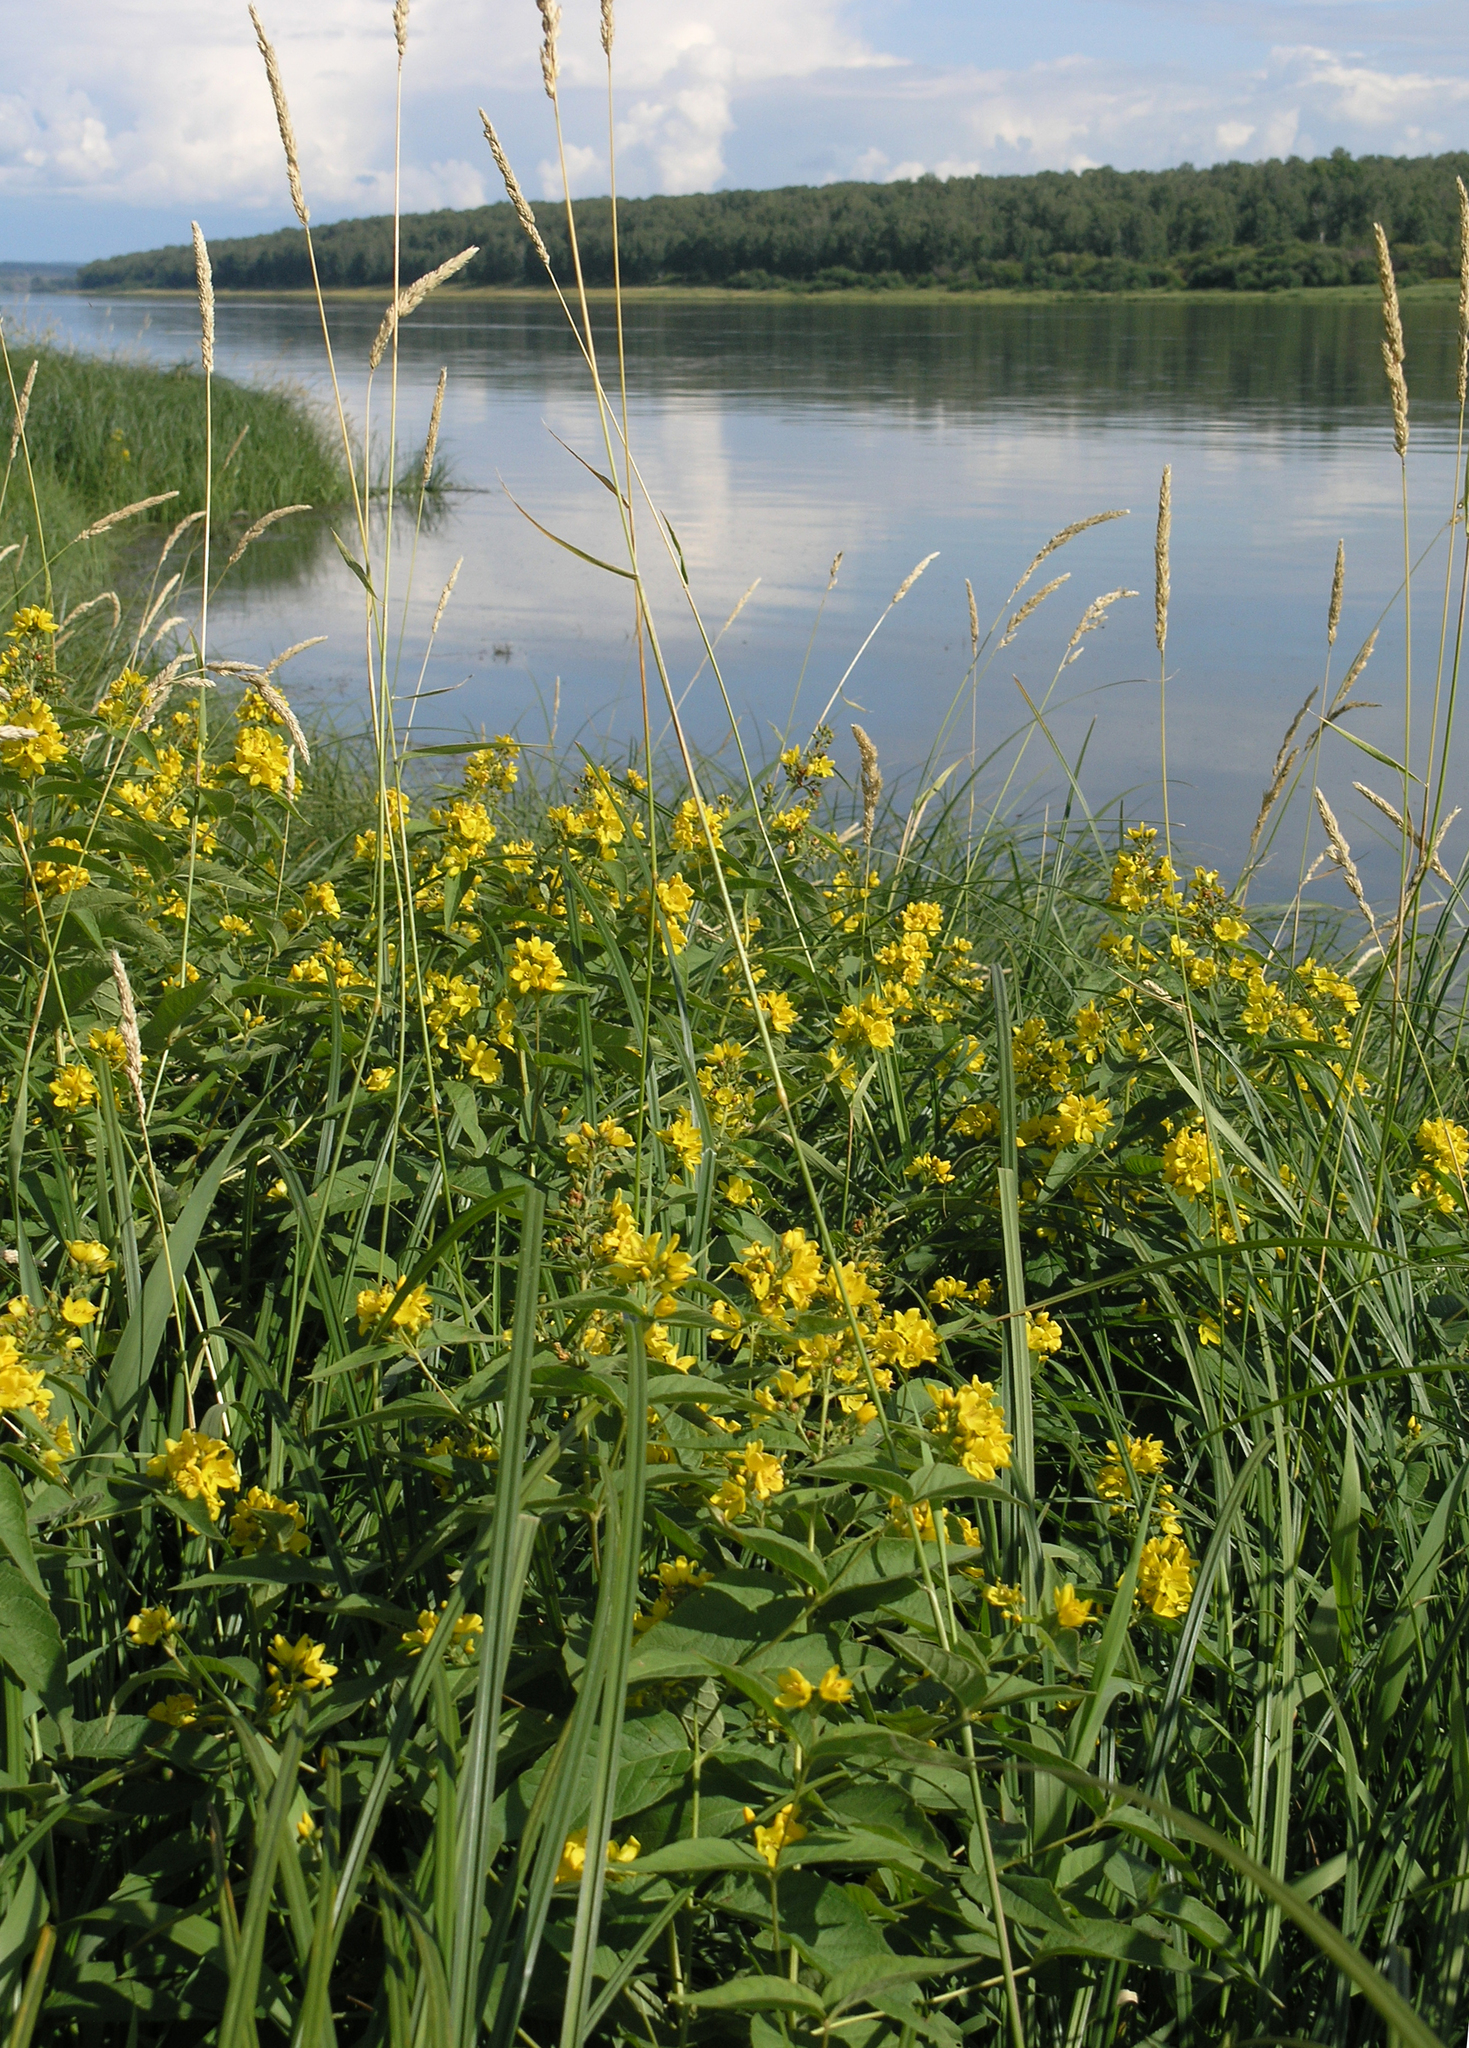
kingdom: Plantae
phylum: Tracheophyta
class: Magnoliopsida
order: Ericales
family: Primulaceae
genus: Lysimachia
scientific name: Lysimachia vulgaris
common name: Yellow loosestrife
